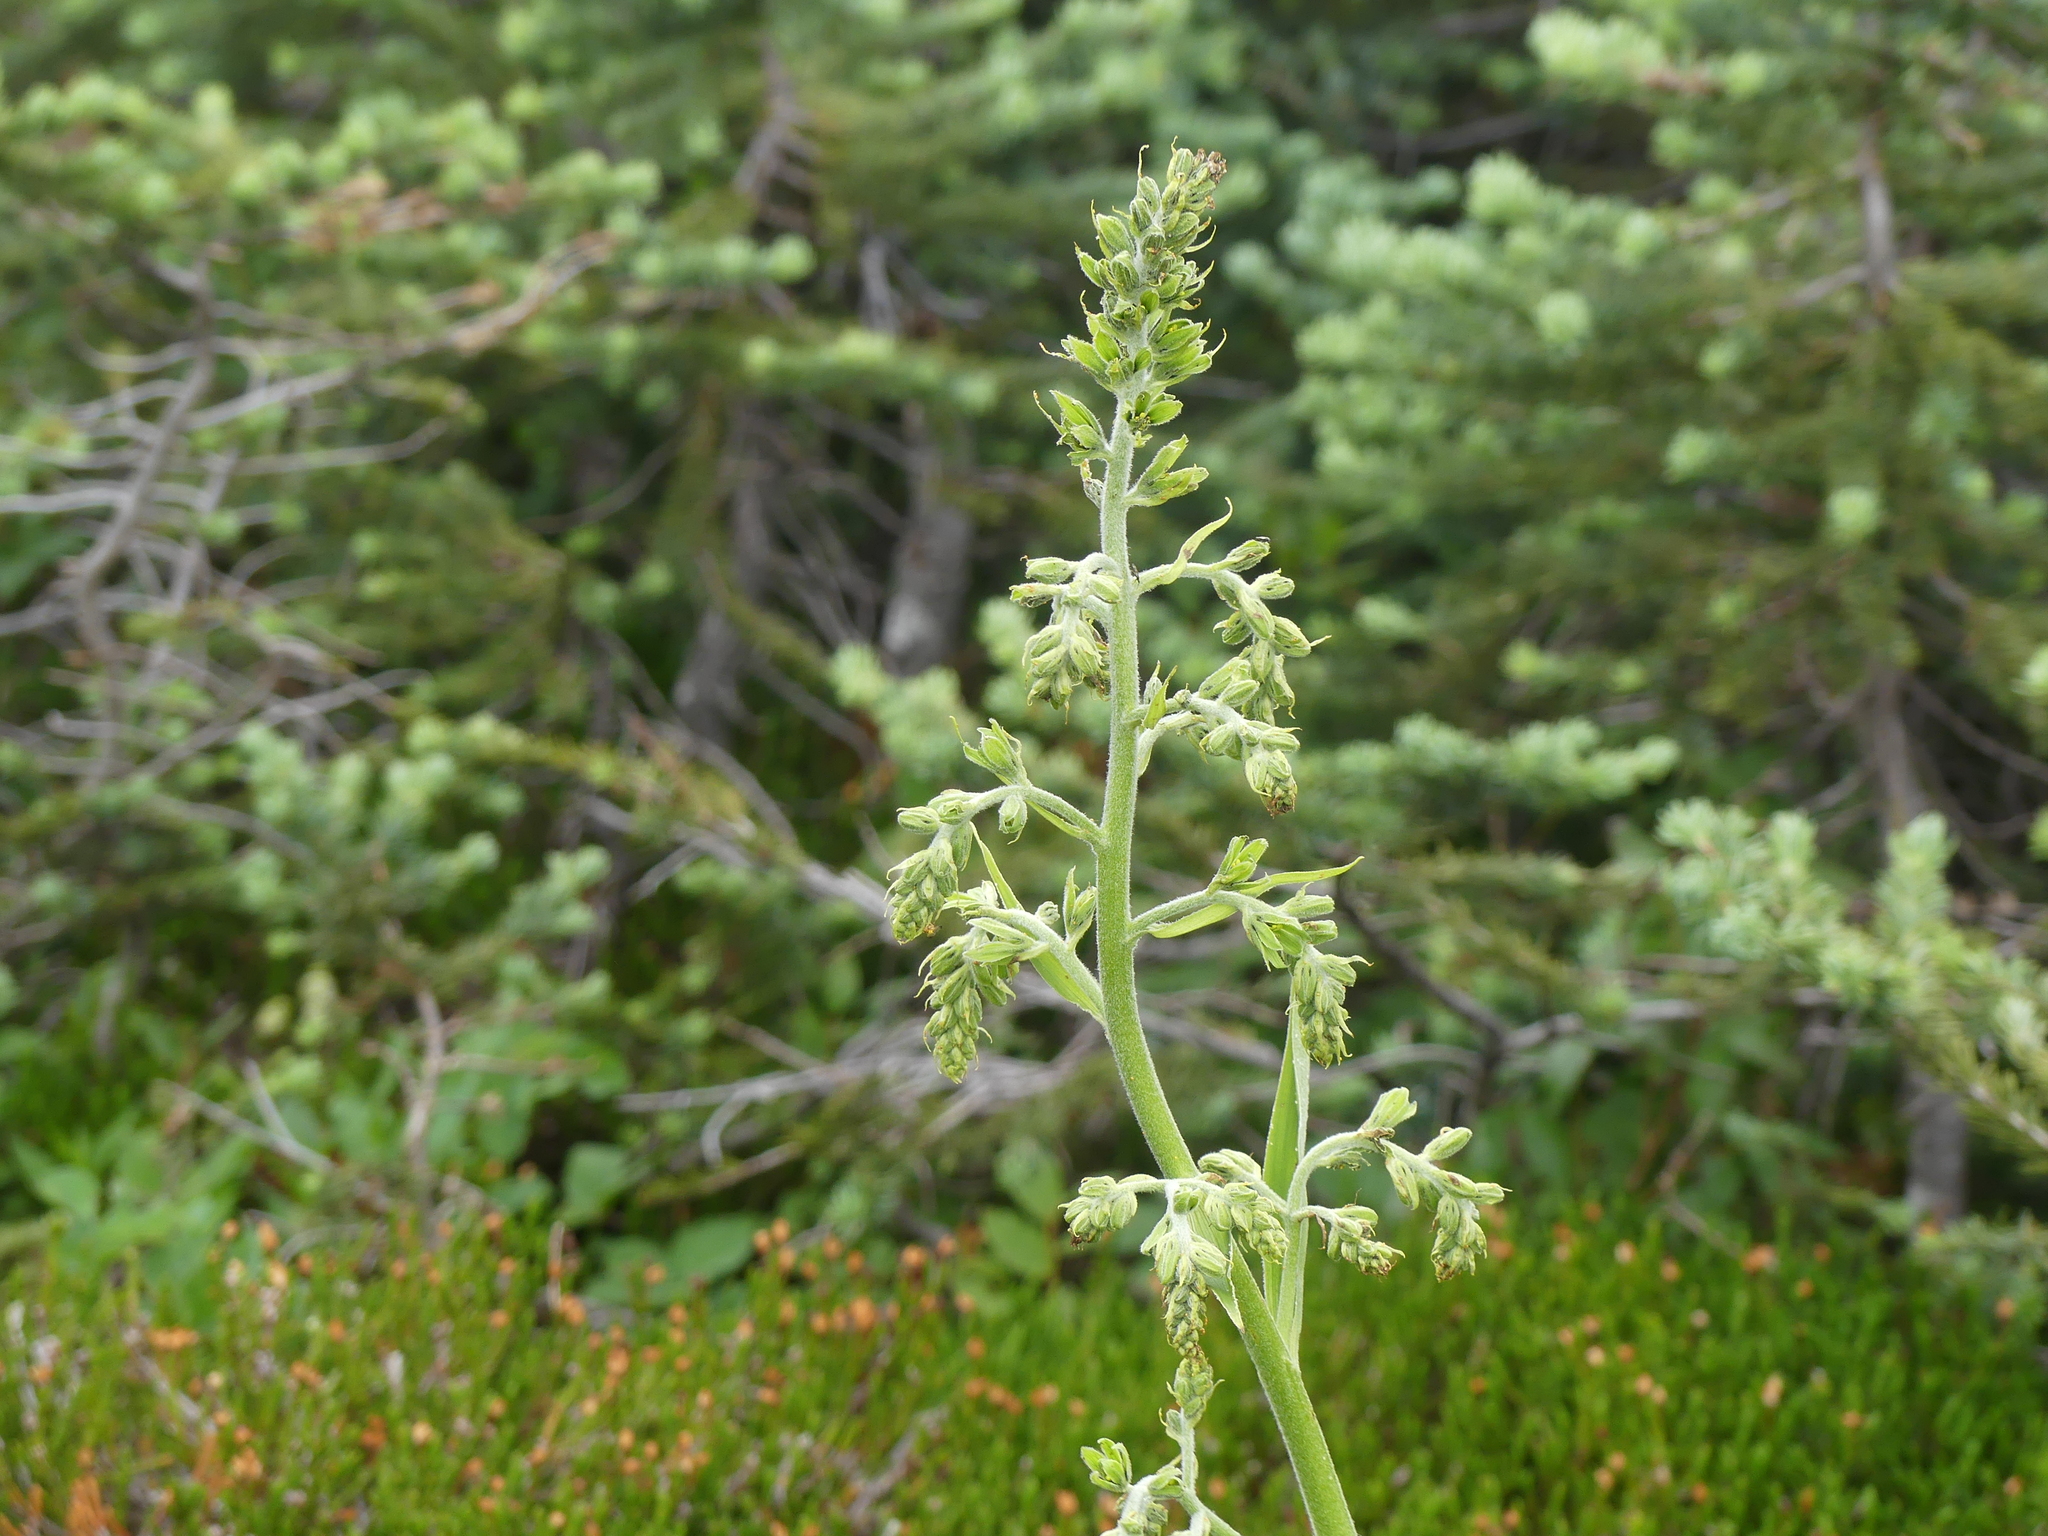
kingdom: Plantae
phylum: Tracheophyta
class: Liliopsida
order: Liliales
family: Melanthiaceae
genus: Veratrum
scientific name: Veratrum viride
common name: American false hellebore
